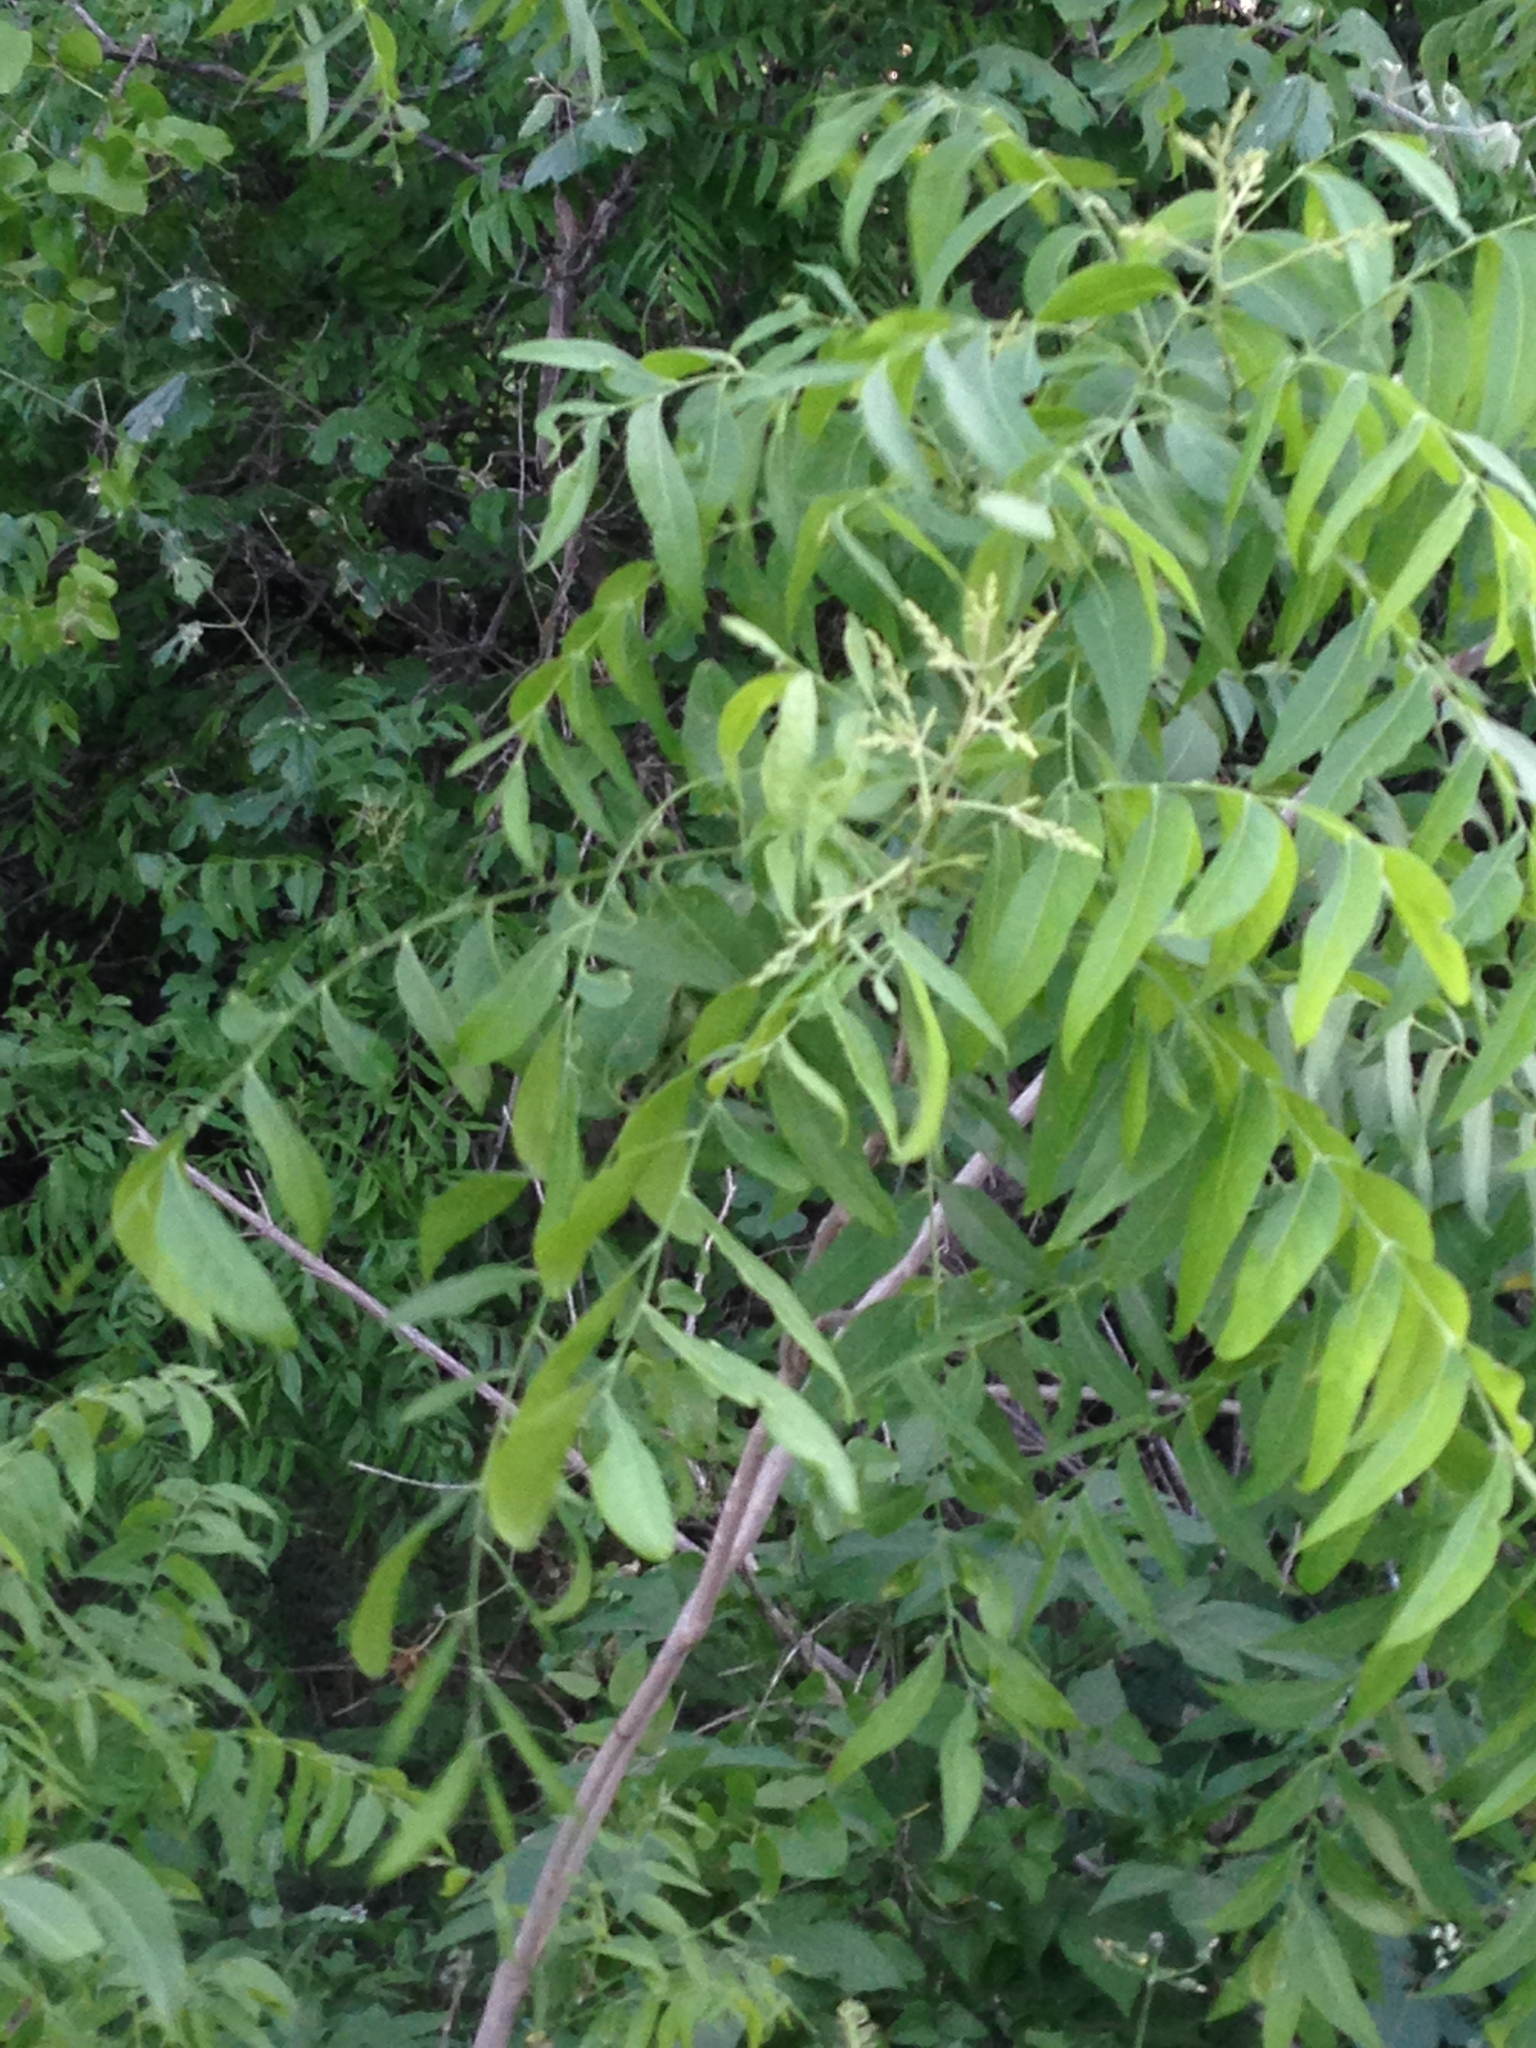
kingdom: Plantae
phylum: Tracheophyta
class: Magnoliopsida
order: Sapindales
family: Sapindaceae
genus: Sapindus
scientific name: Sapindus drummondii
